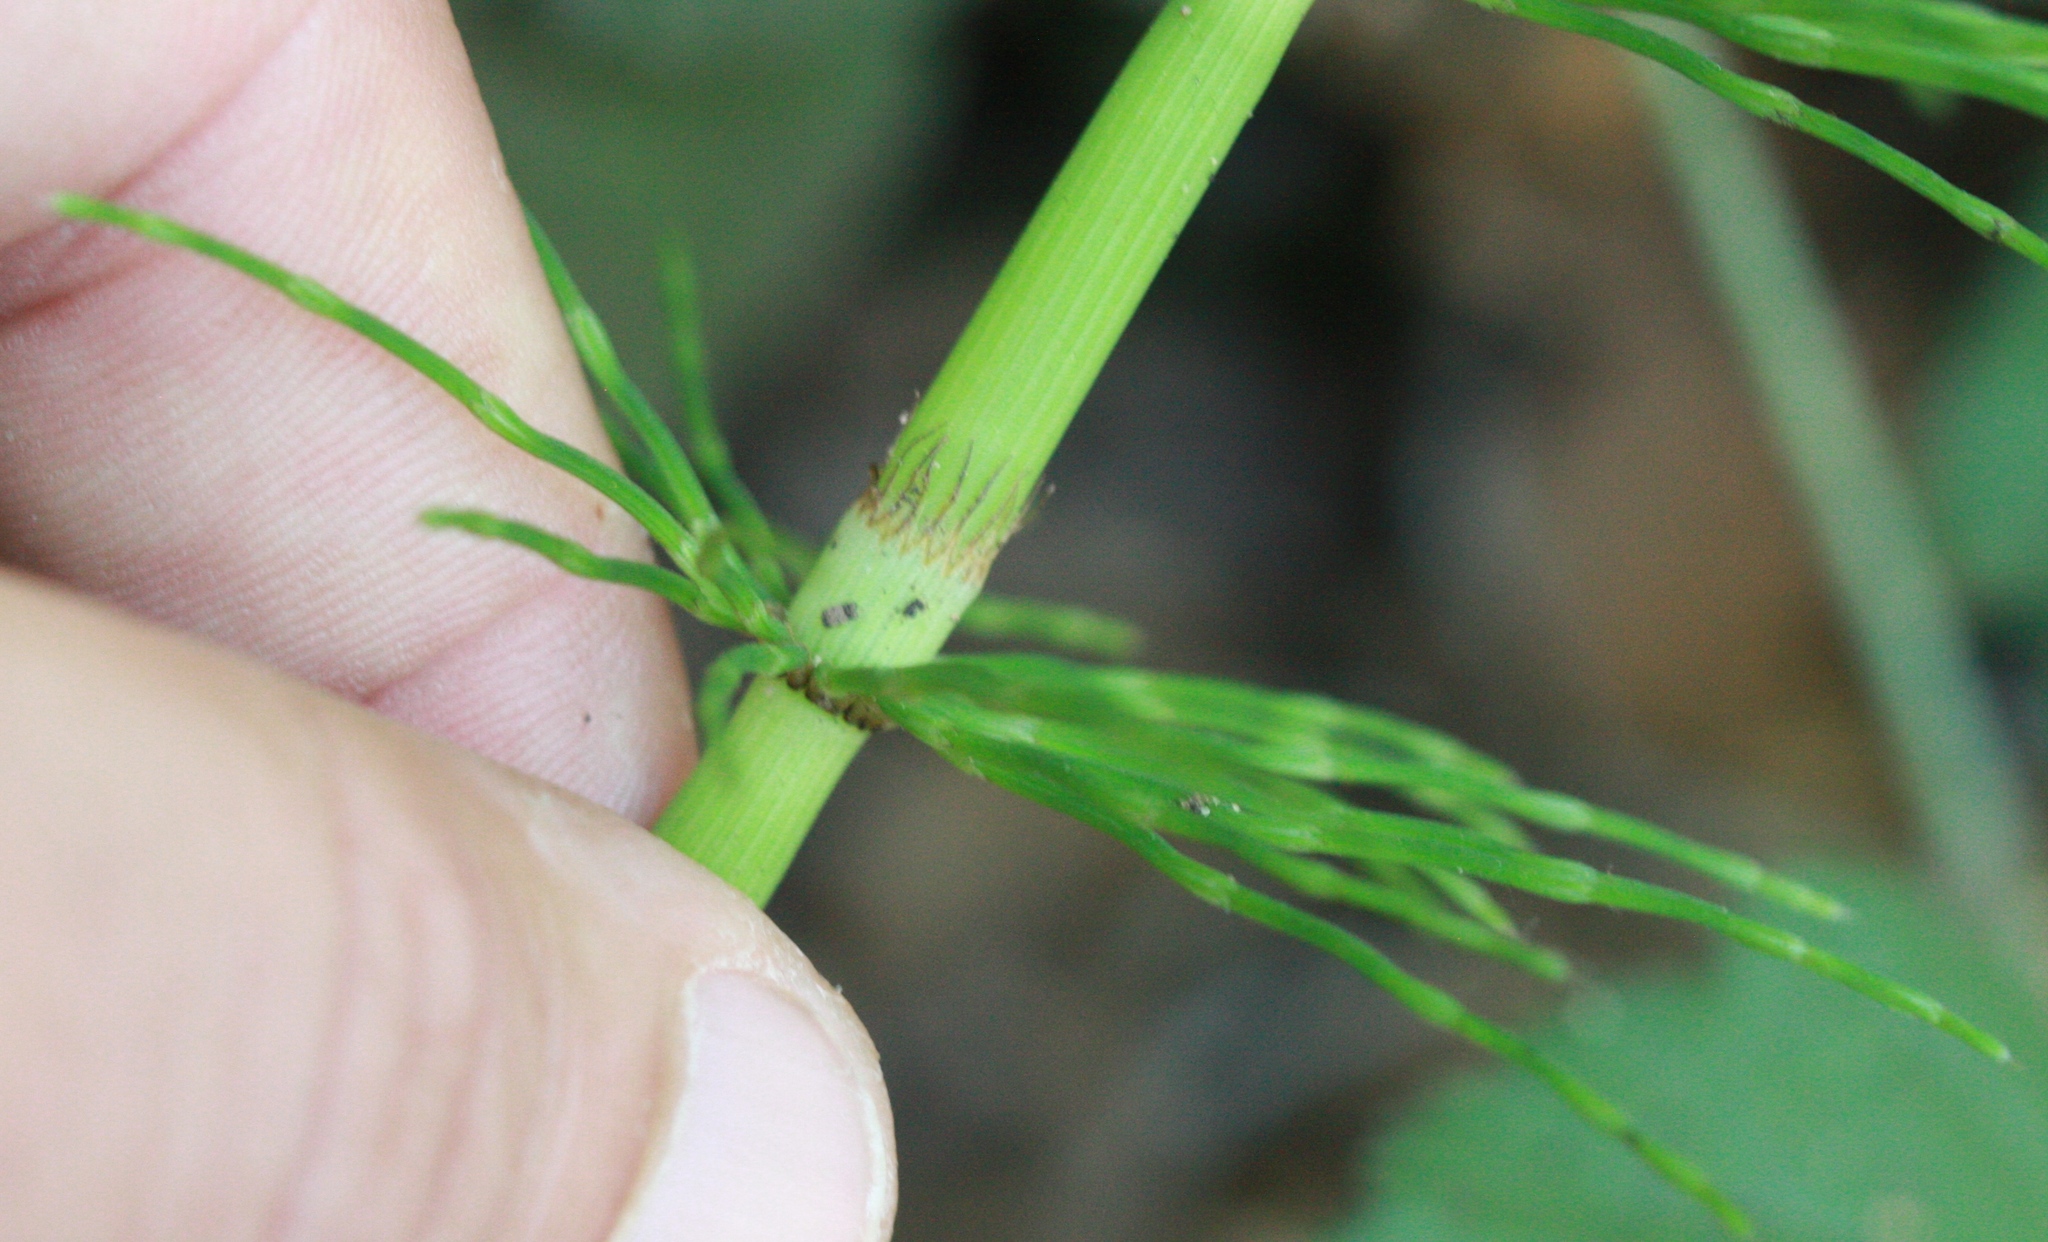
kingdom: Plantae
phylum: Tracheophyta
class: Polypodiopsida
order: Equisetales
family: Equisetaceae
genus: Equisetum
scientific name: Equisetum braunii
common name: Braun's horsetail
